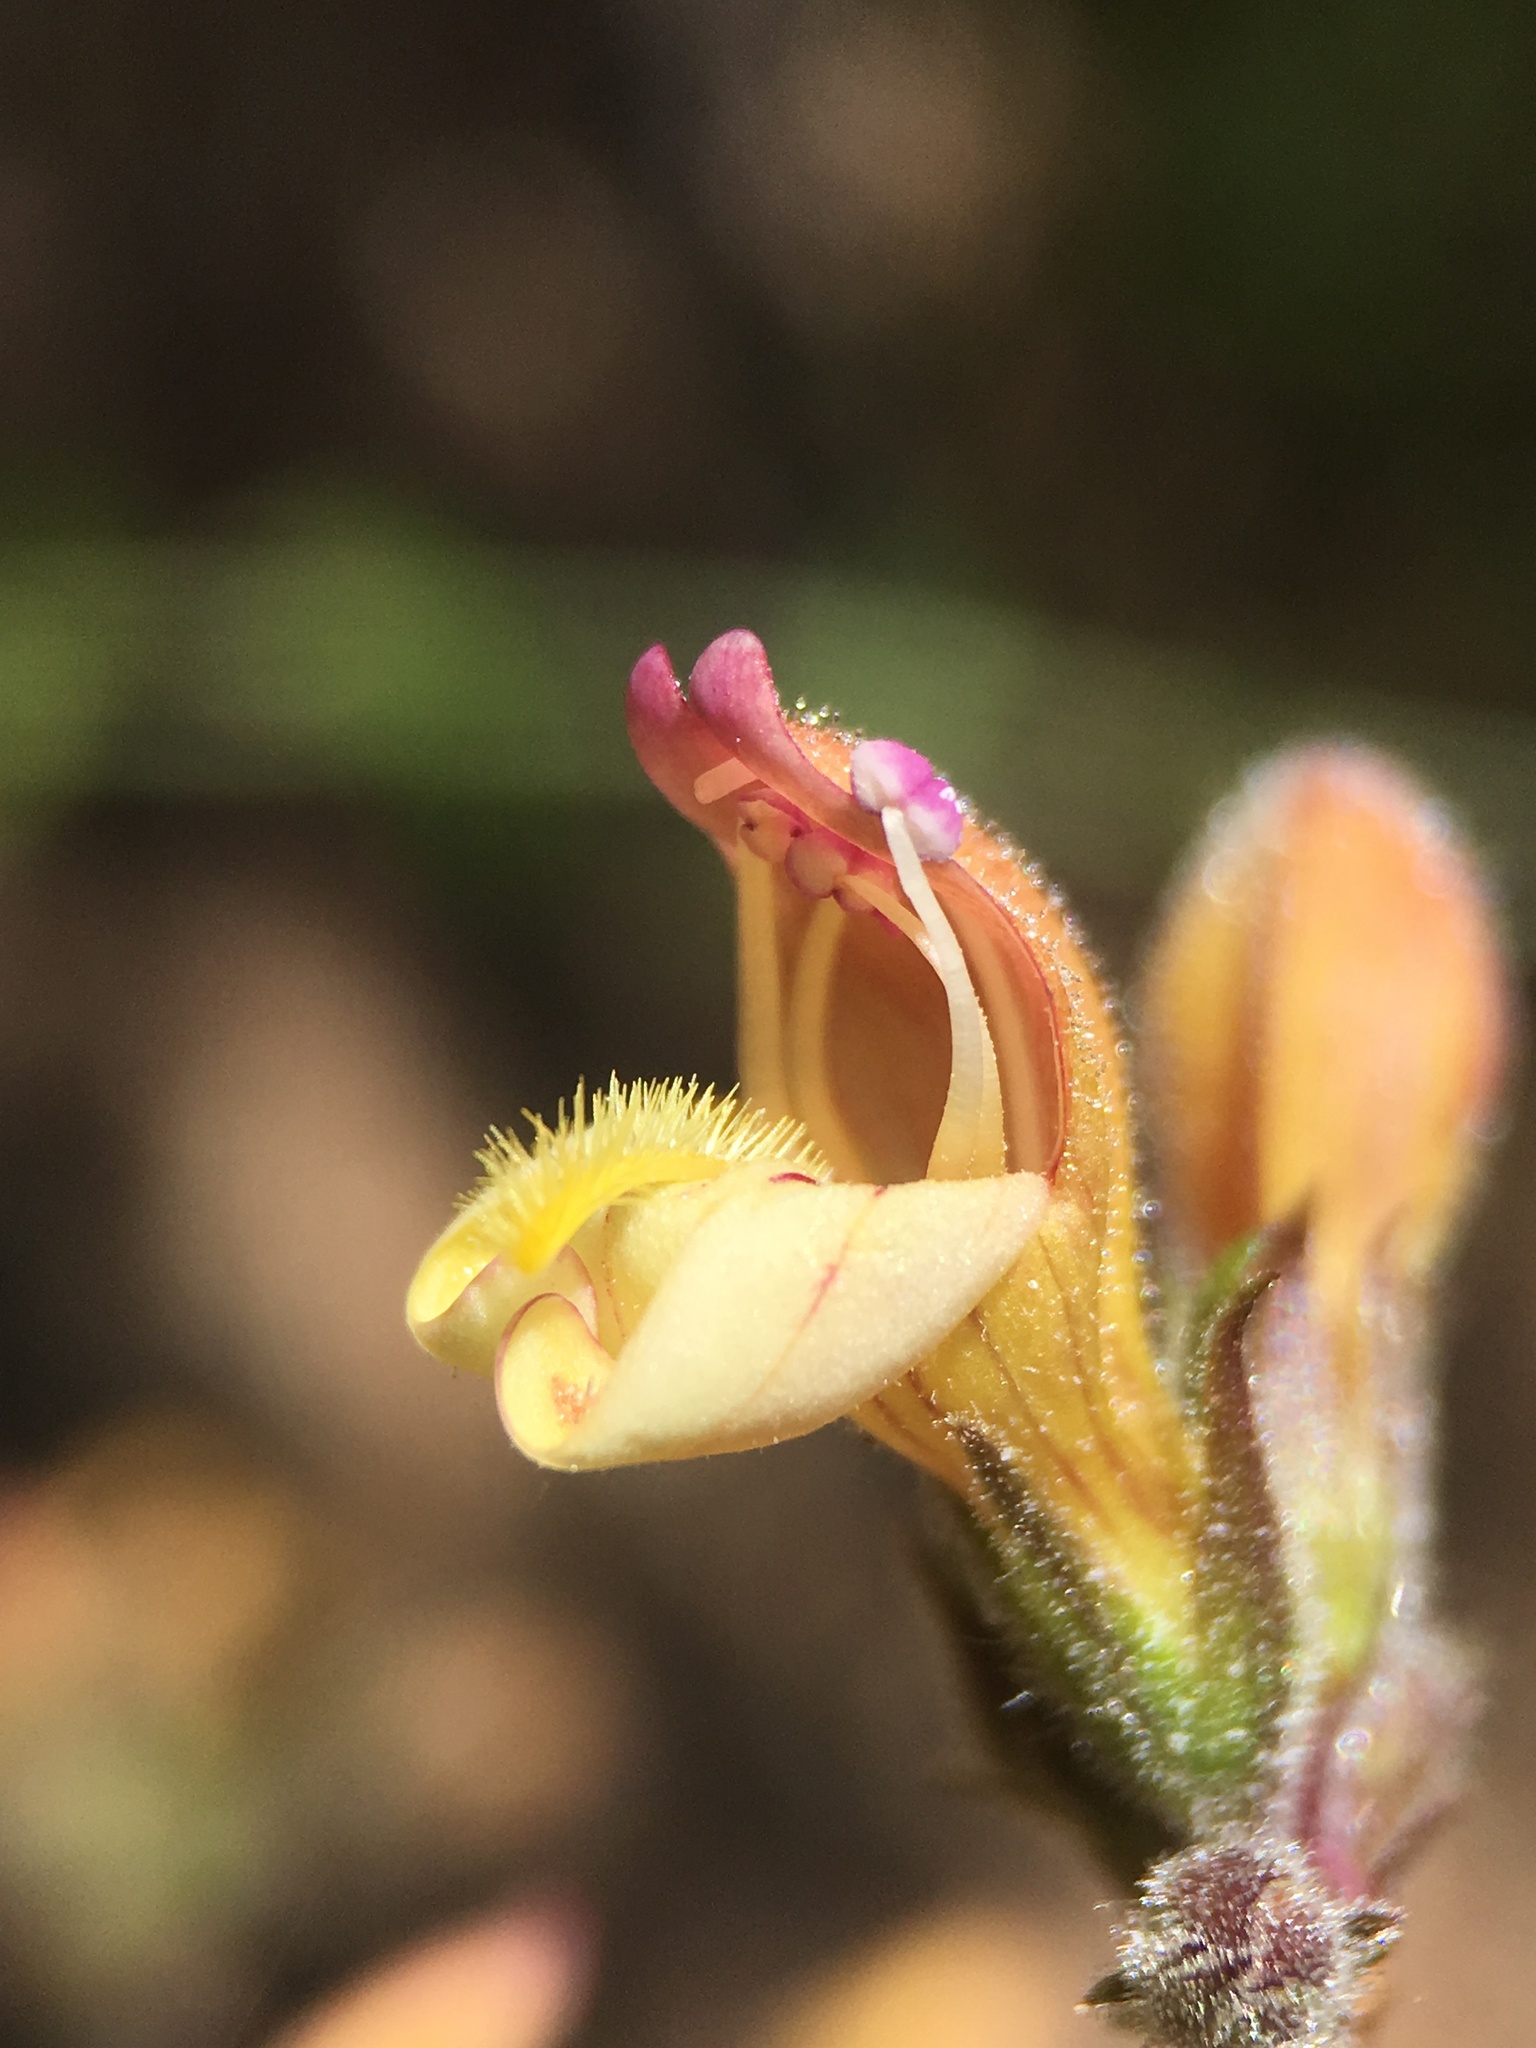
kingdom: Plantae
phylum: Tracheophyta
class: Magnoliopsida
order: Lamiales
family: Plantaginaceae
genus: Keckiella
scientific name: Keckiella lemmonii
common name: Lemmon's keckiella
